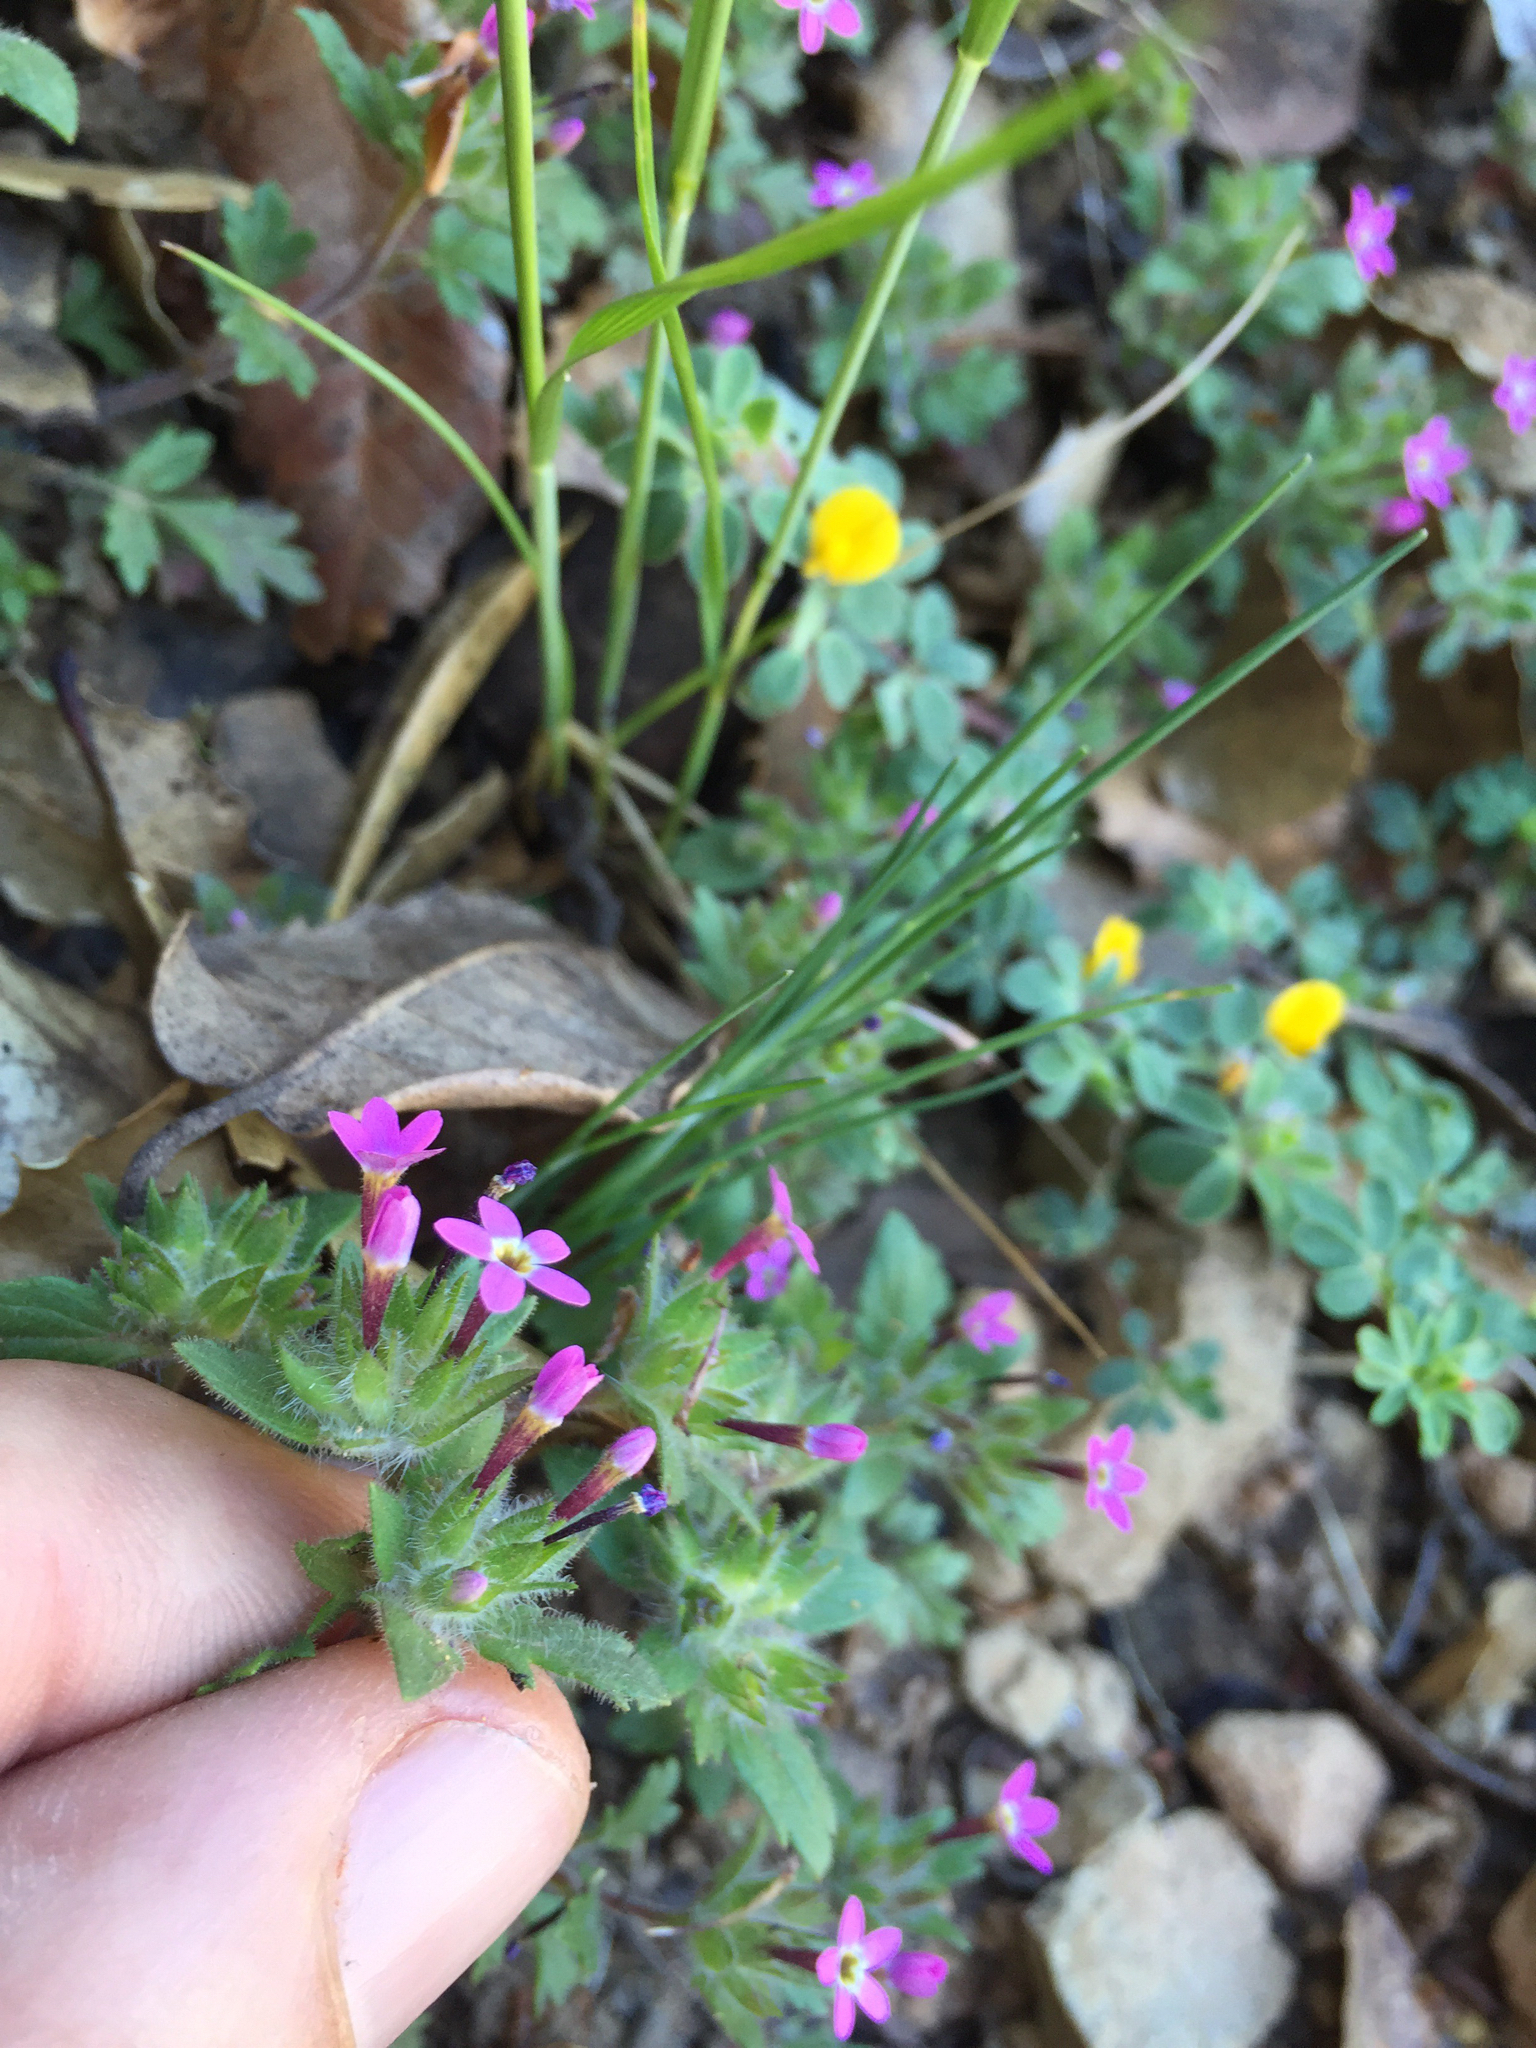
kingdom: Plantae
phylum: Tracheophyta
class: Magnoliopsida
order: Ericales
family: Polemoniaceae
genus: Collomia
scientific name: Collomia heterophylla
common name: Variable-leaved collomia
